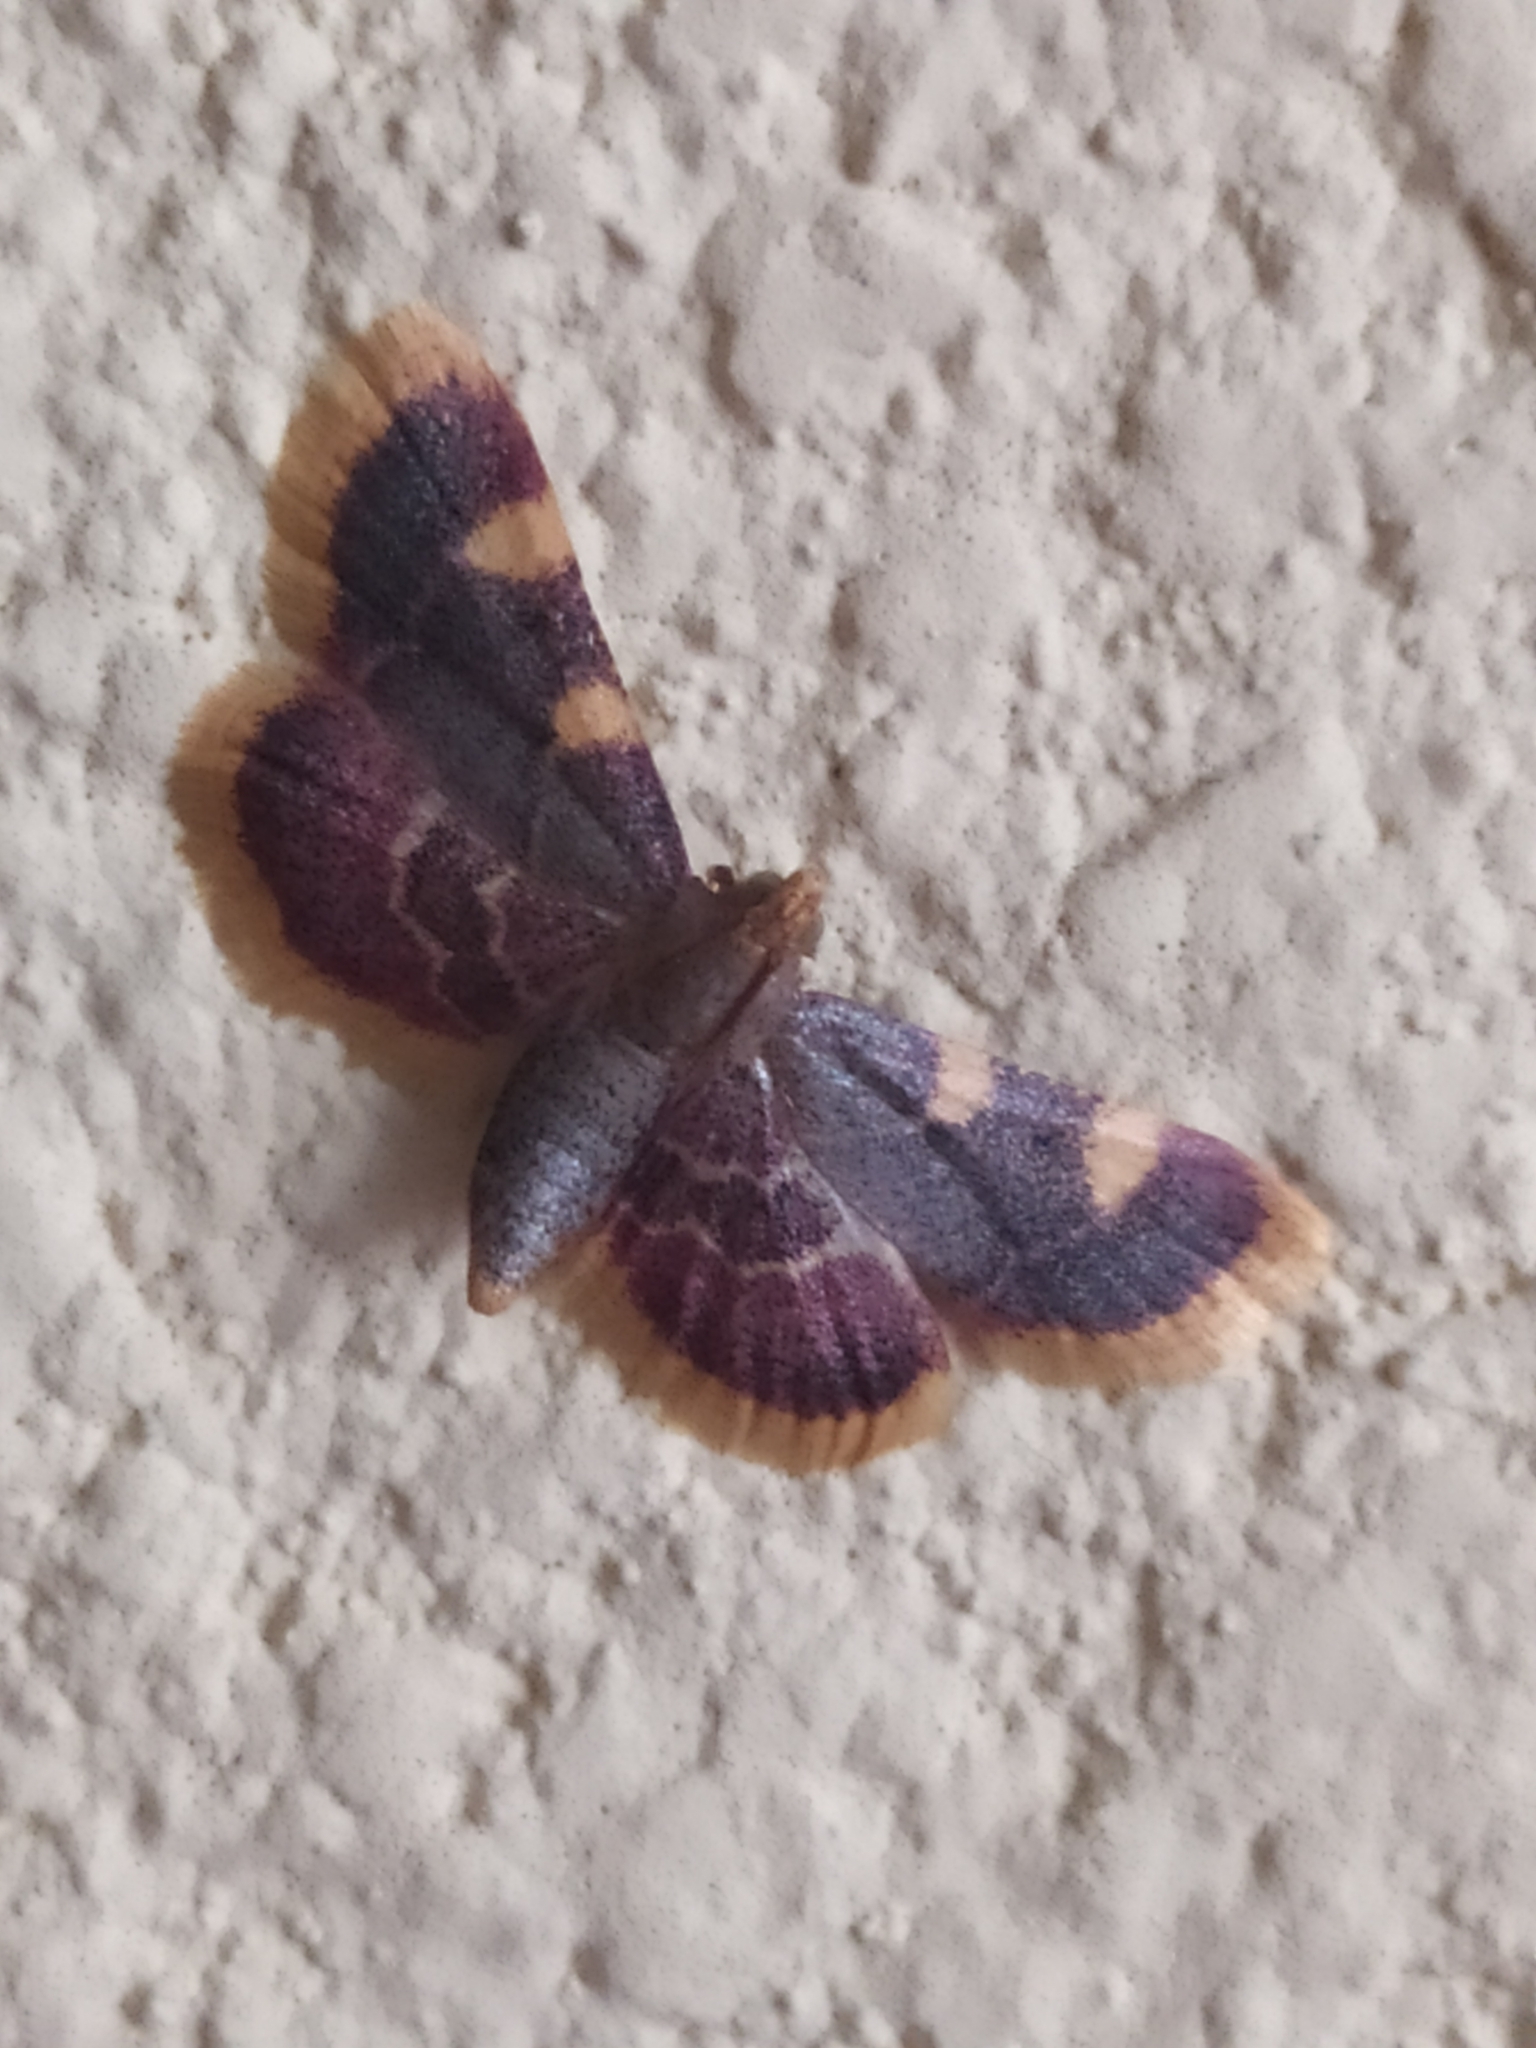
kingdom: Animalia
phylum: Arthropoda
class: Insecta
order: Lepidoptera
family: Pyralidae
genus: Hypsopygia
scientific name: Hypsopygia costalis
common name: Gold triangle
